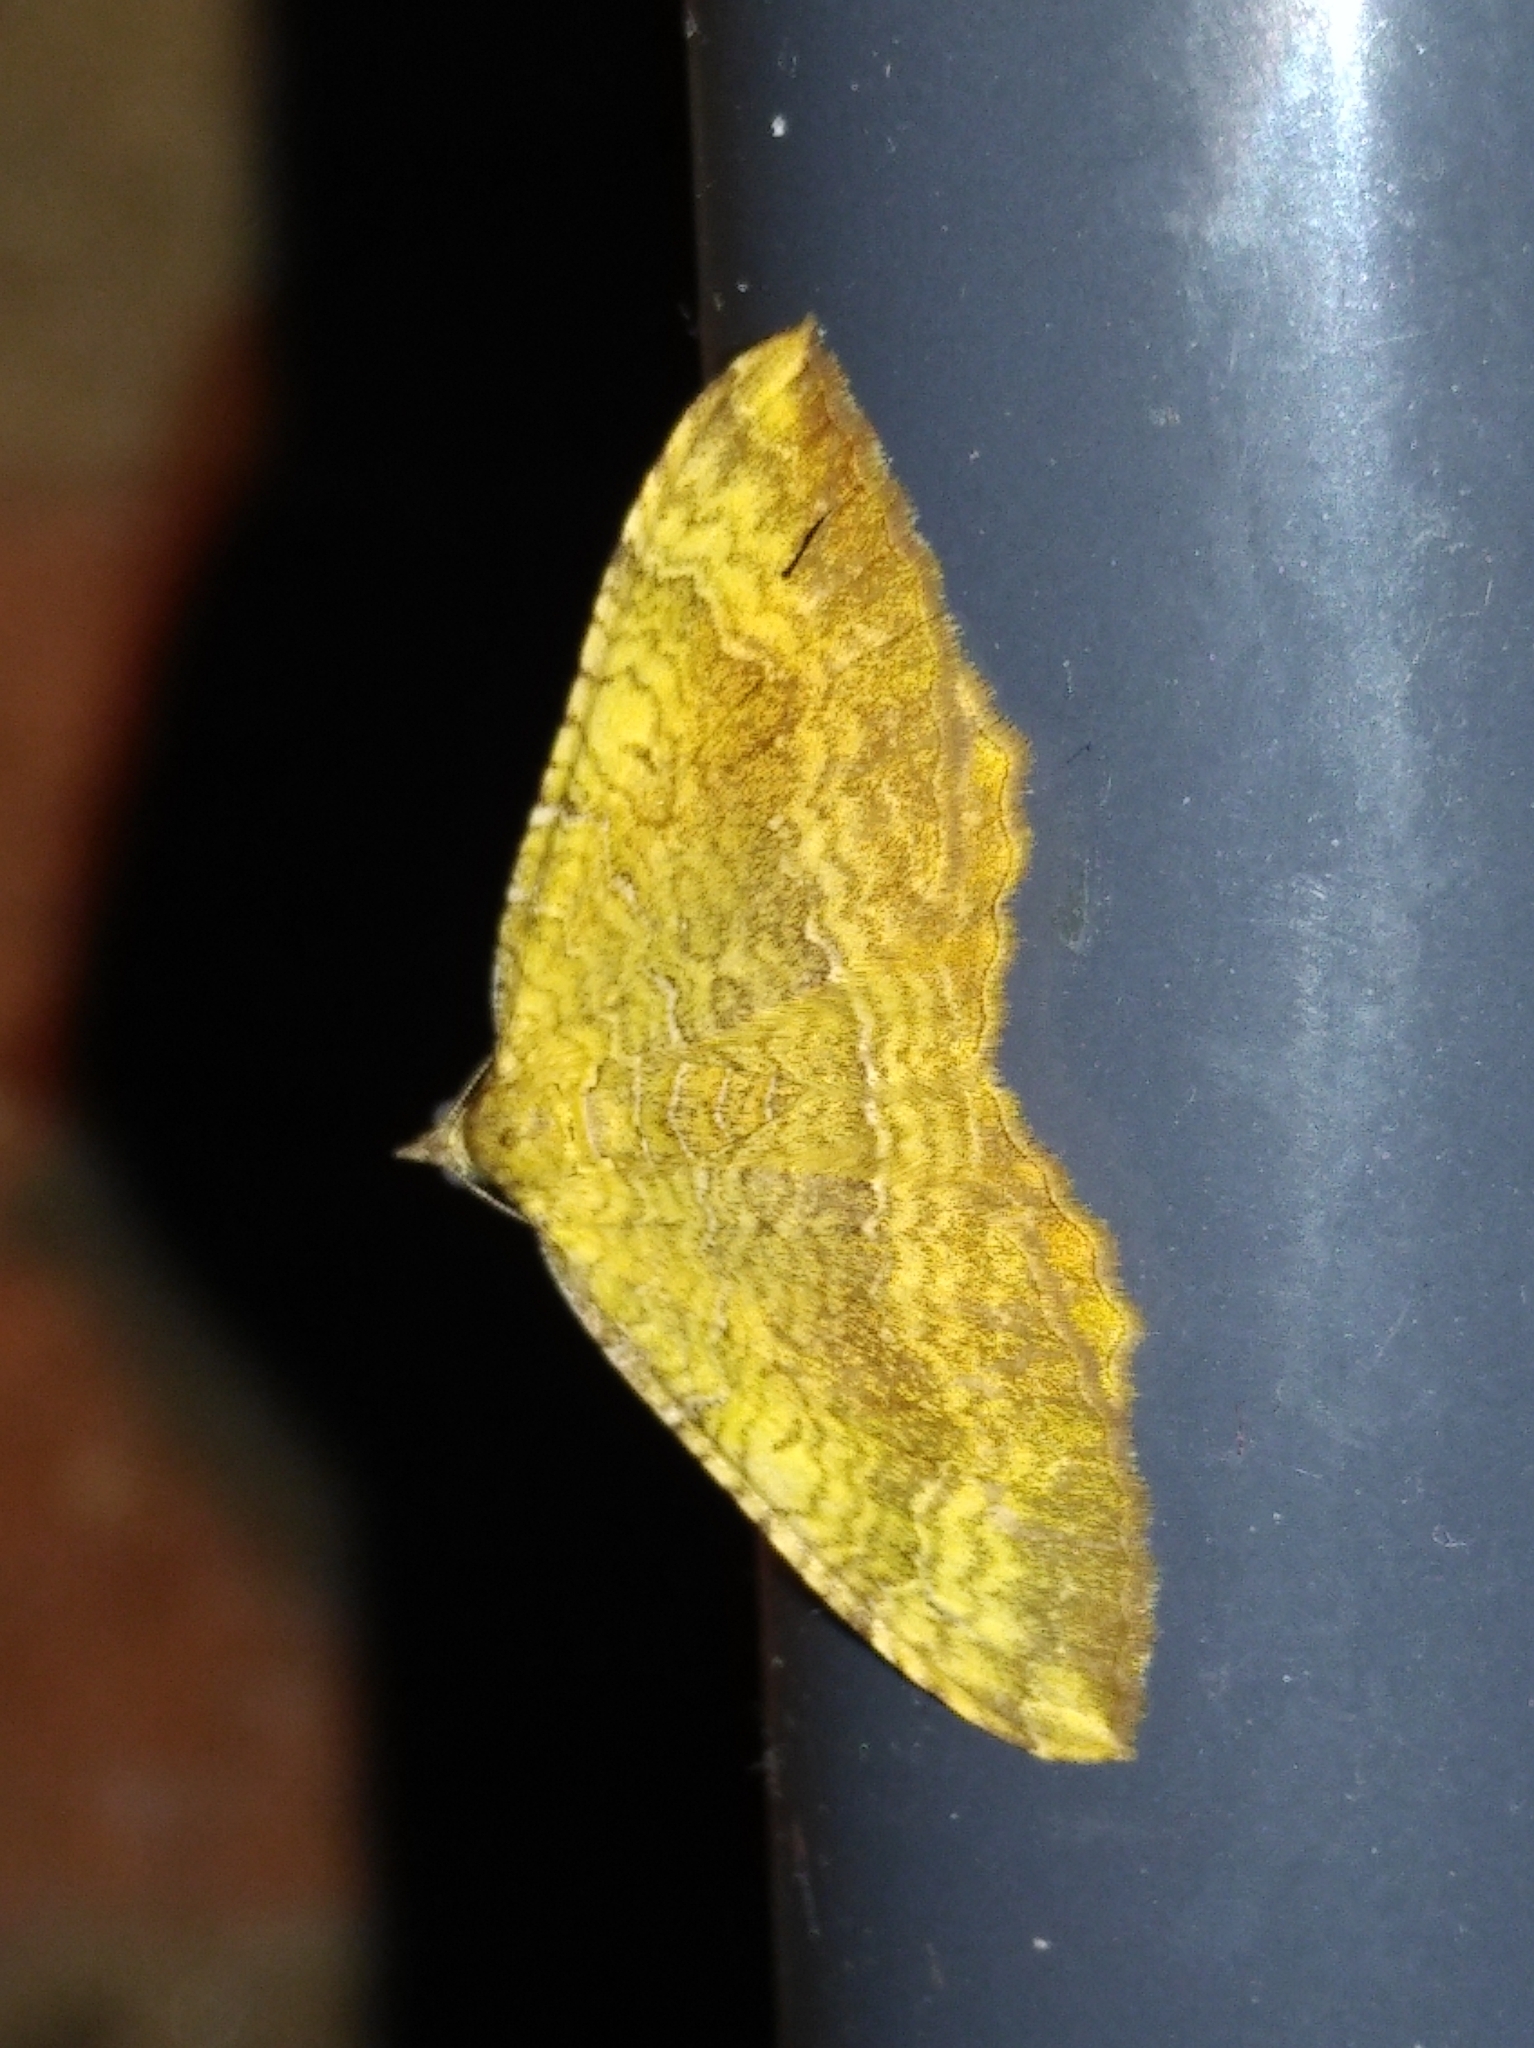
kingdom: Animalia
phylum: Arthropoda
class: Insecta
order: Lepidoptera
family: Geometridae
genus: Camptogramma
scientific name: Camptogramma bilineata
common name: Yellow shell
